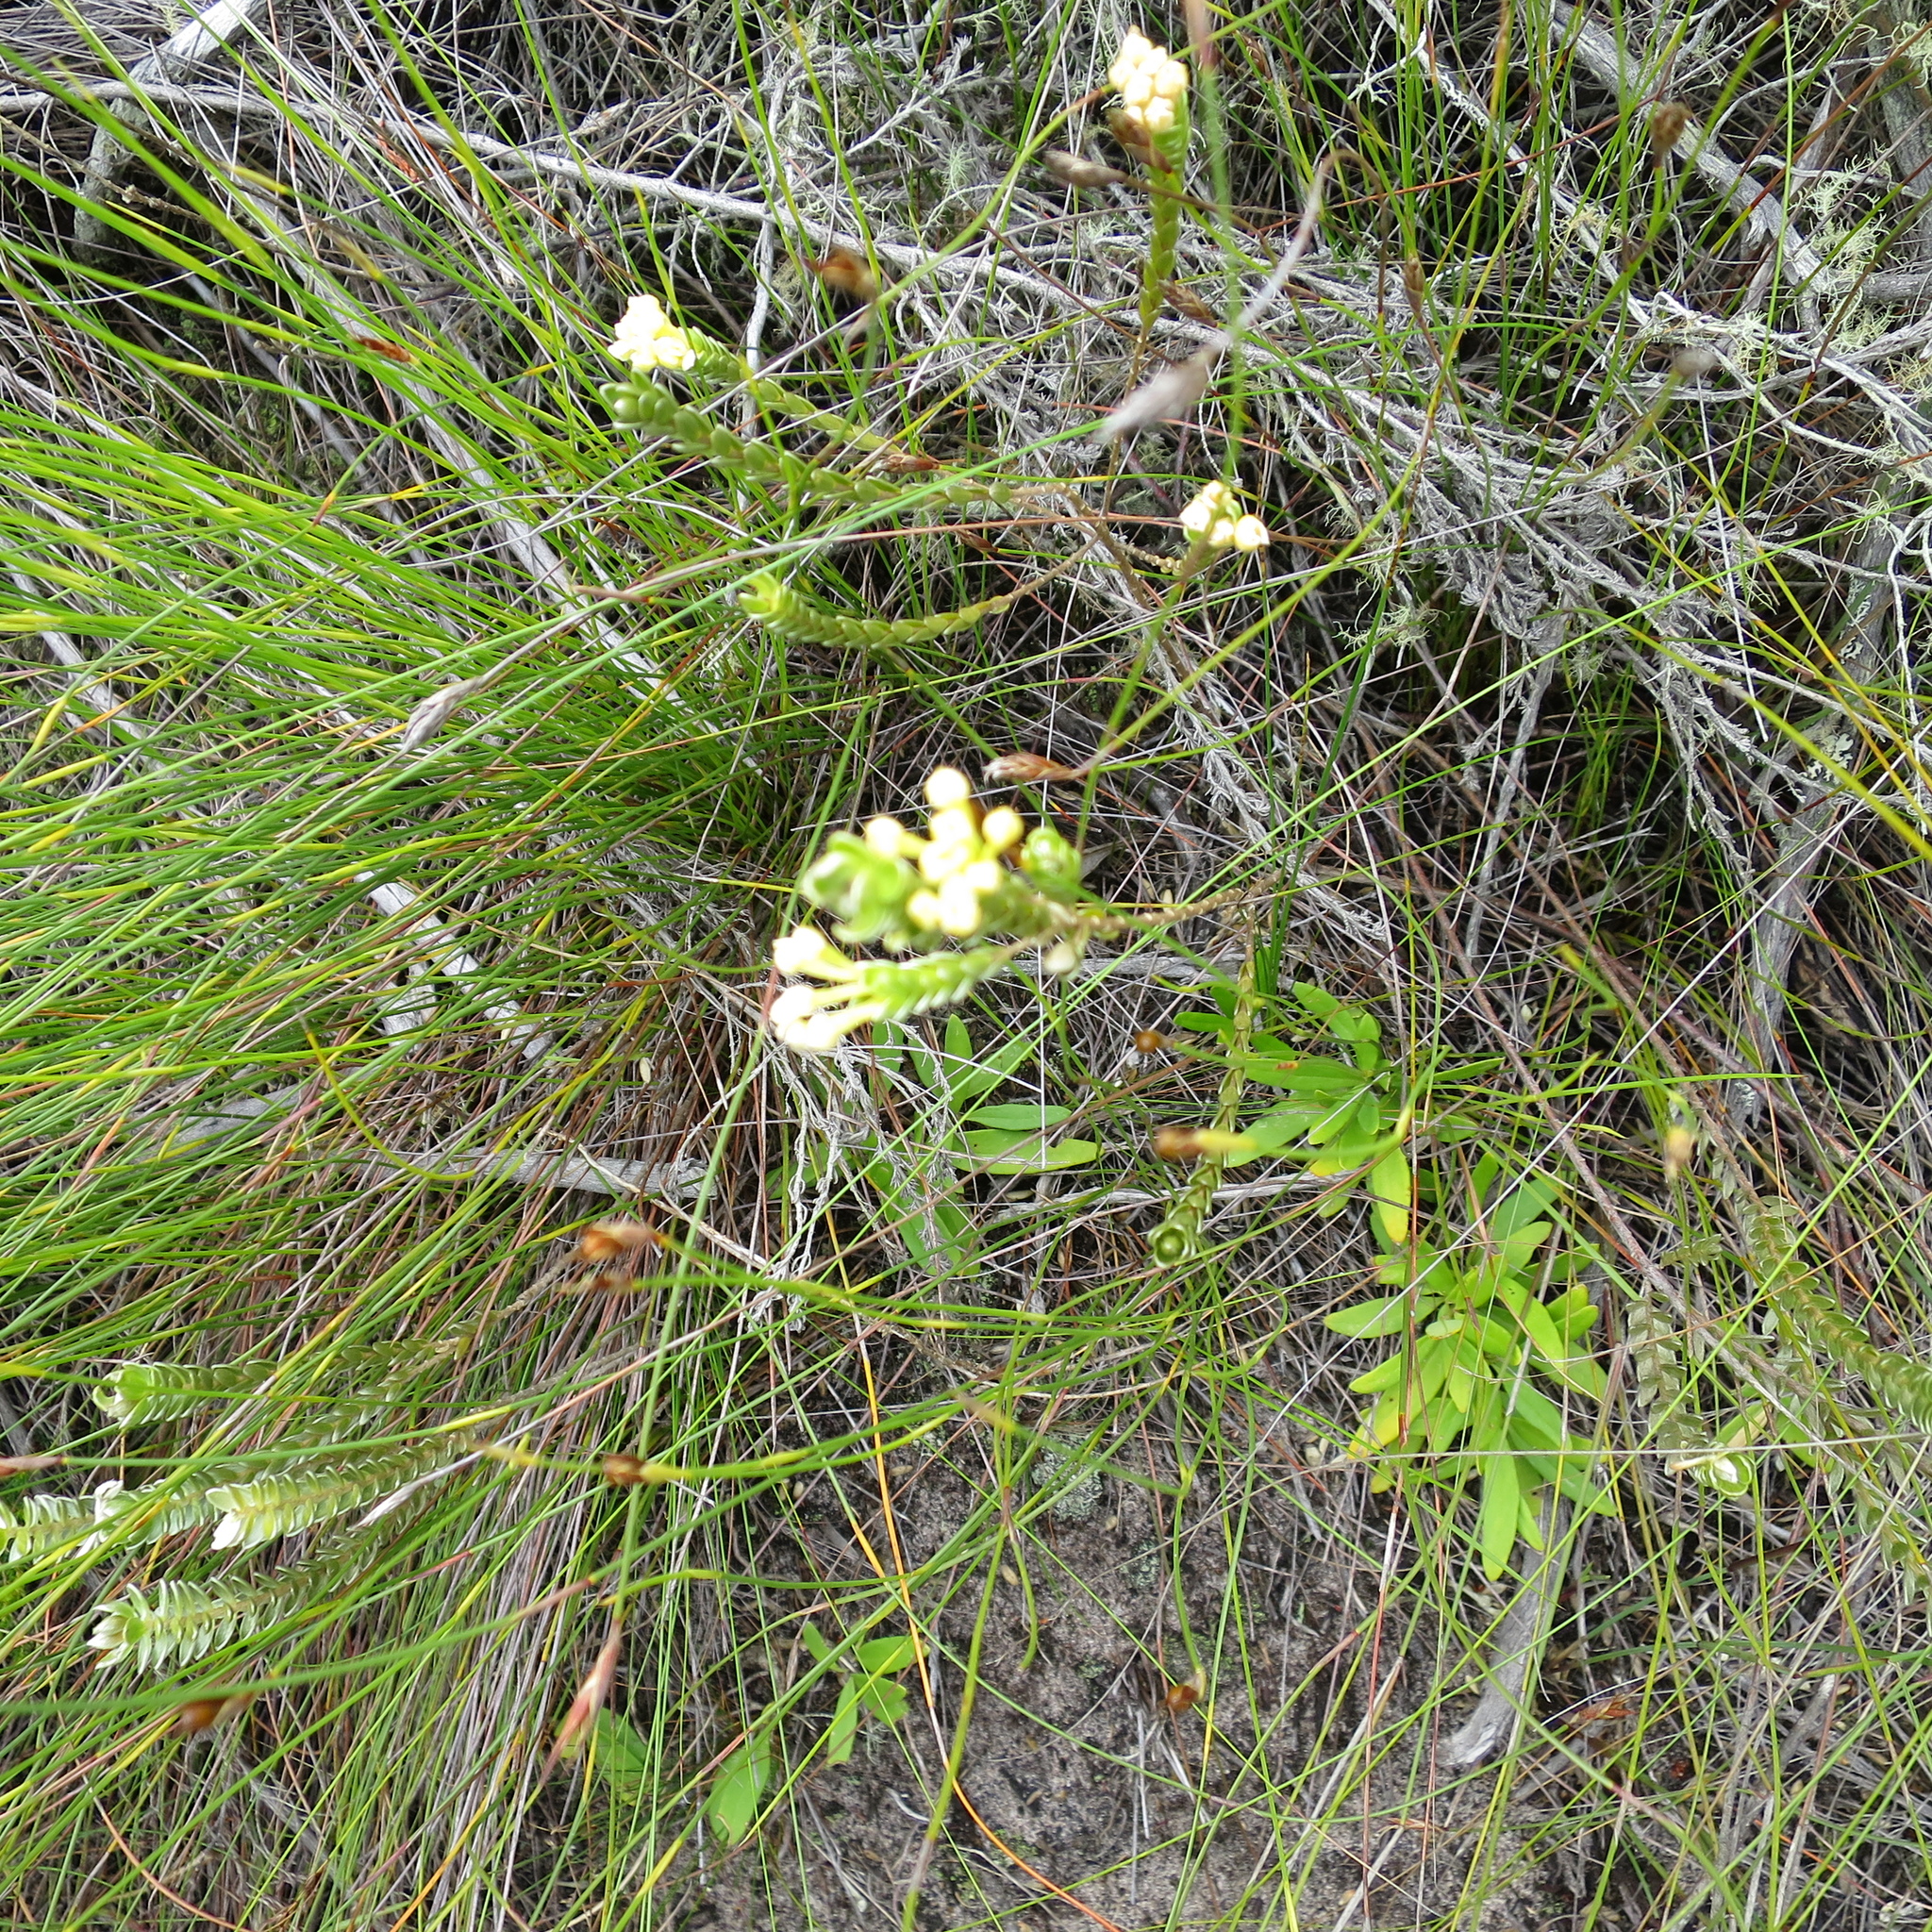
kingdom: Plantae
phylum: Tracheophyta
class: Magnoliopsida
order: Malvales
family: Thymelaeaceae
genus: Gnidia
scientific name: Gnidia chrysophylla
